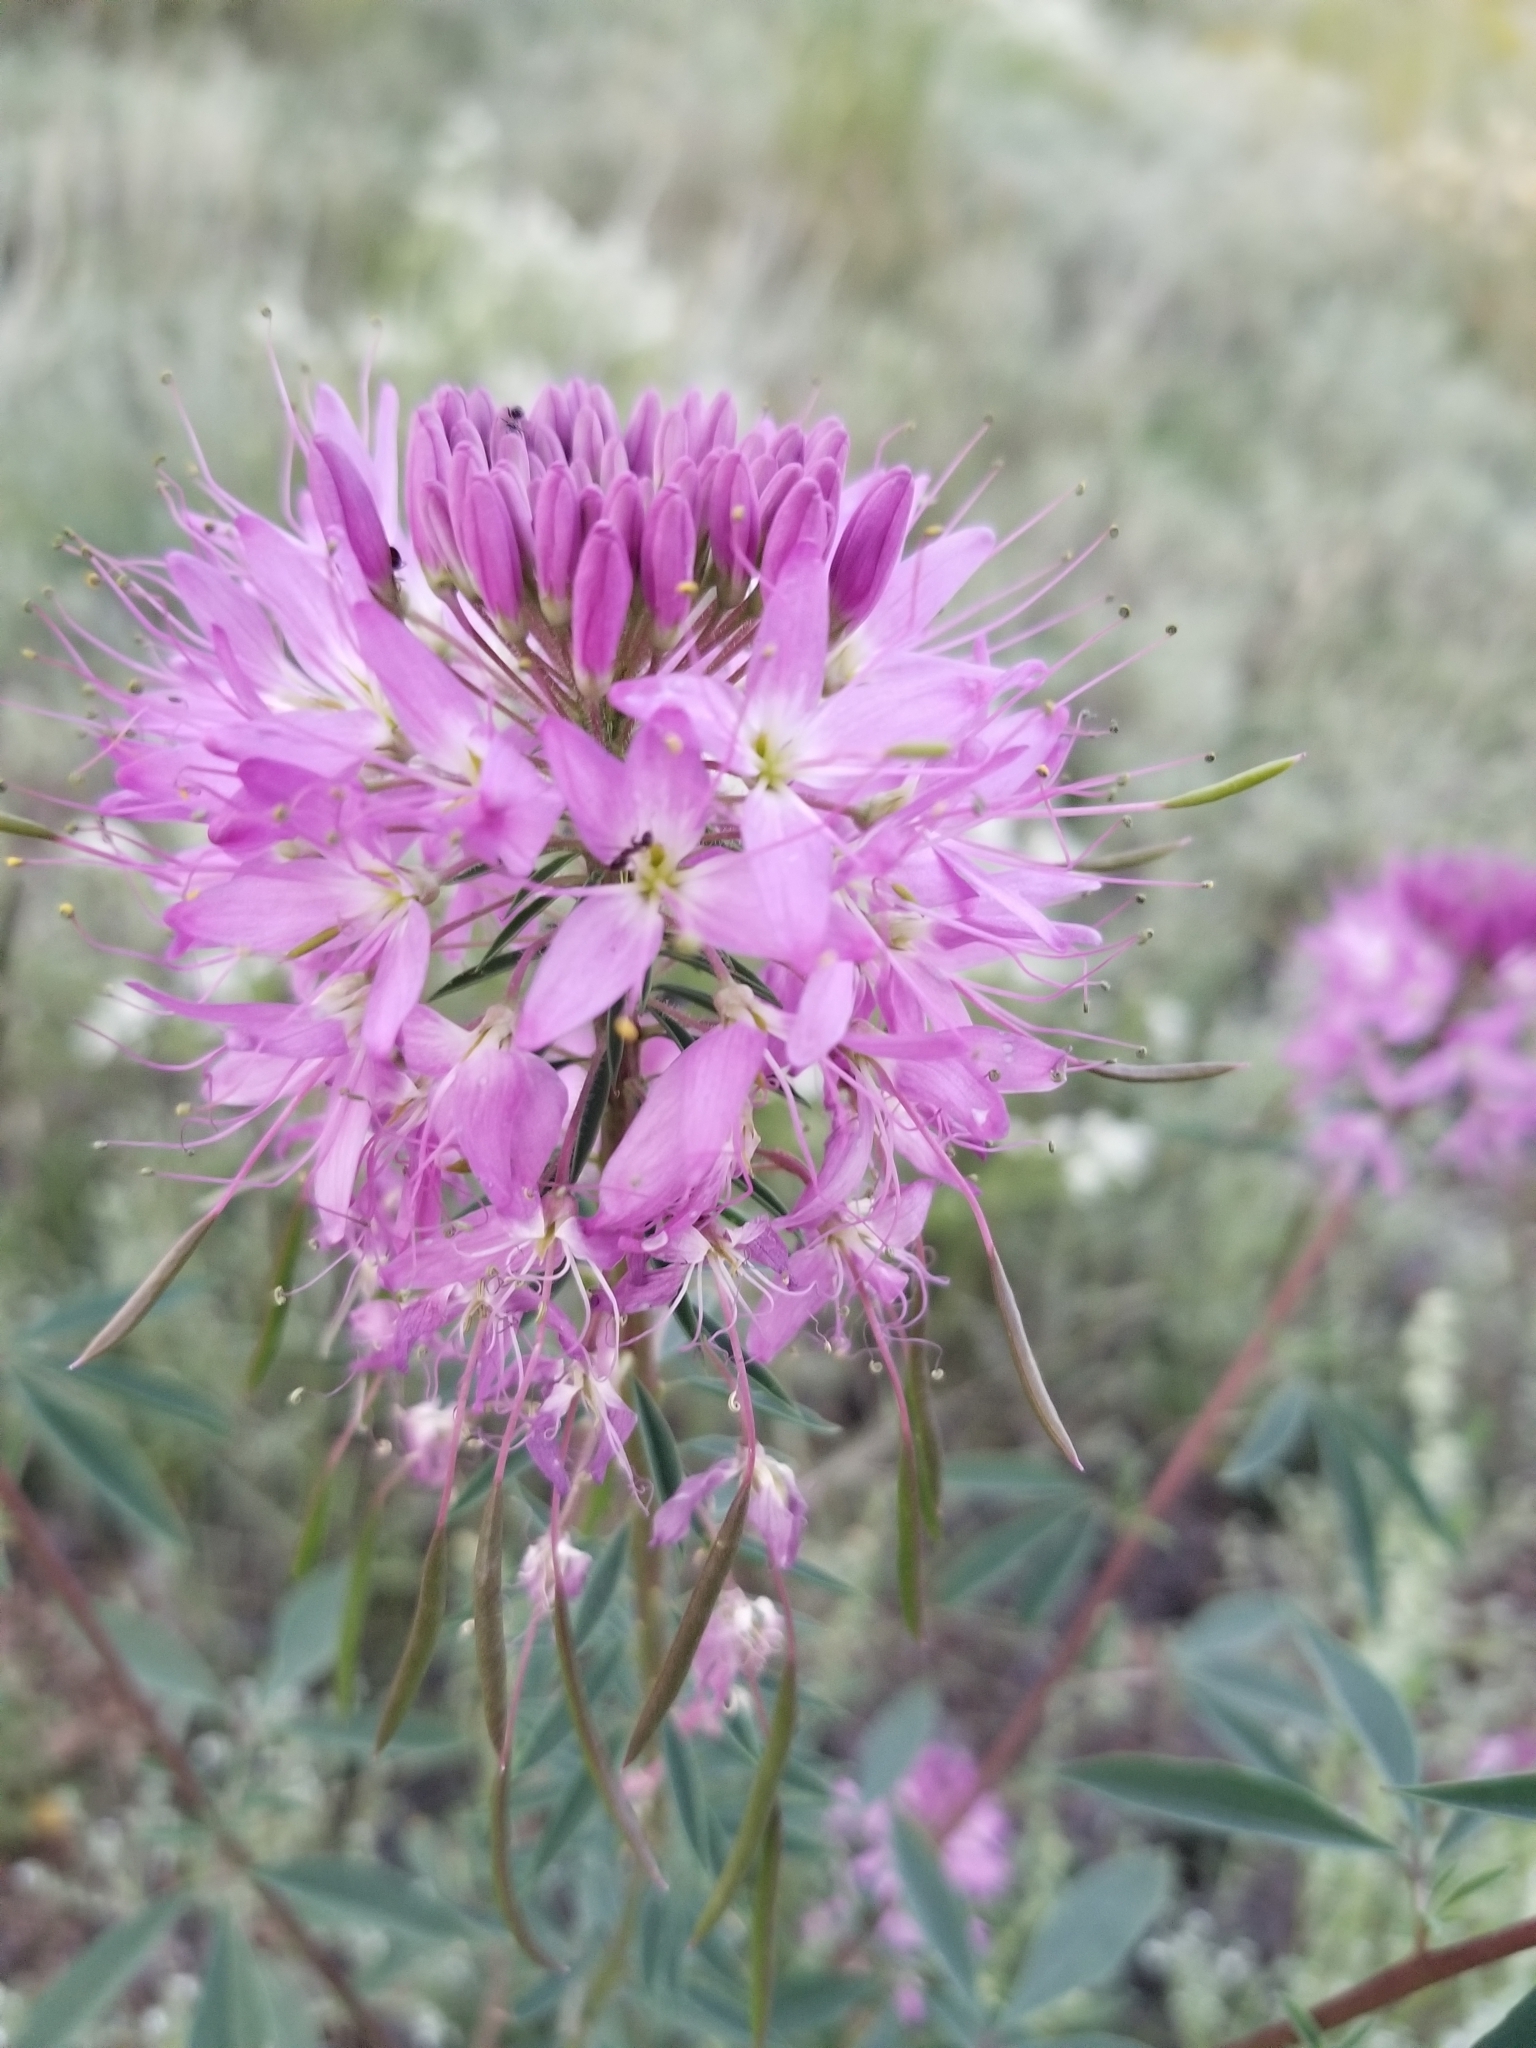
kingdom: Plantae
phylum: Tracheophyta
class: Magnoliopsida
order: Brassicales
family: Cleomaceae
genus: Cleomella
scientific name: Cleomella serrulata
